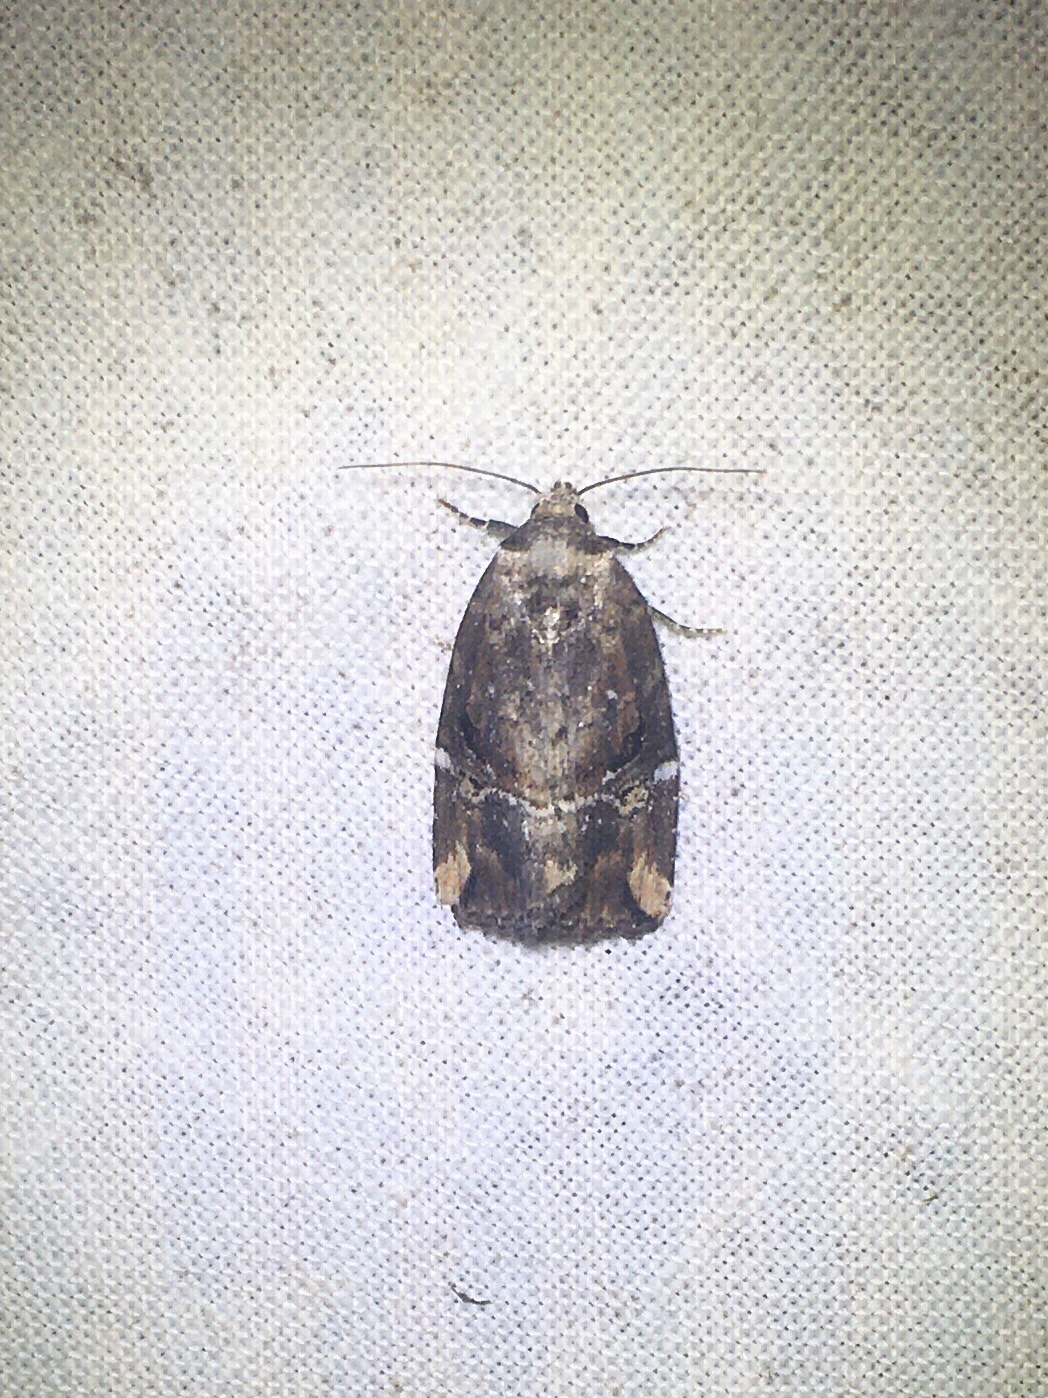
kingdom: Animalia
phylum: Arthropoda
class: Insecta
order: Lepidoptera
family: Noctuidae
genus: Elaphria
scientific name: Elaphria versicolor
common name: Fir harlequin
